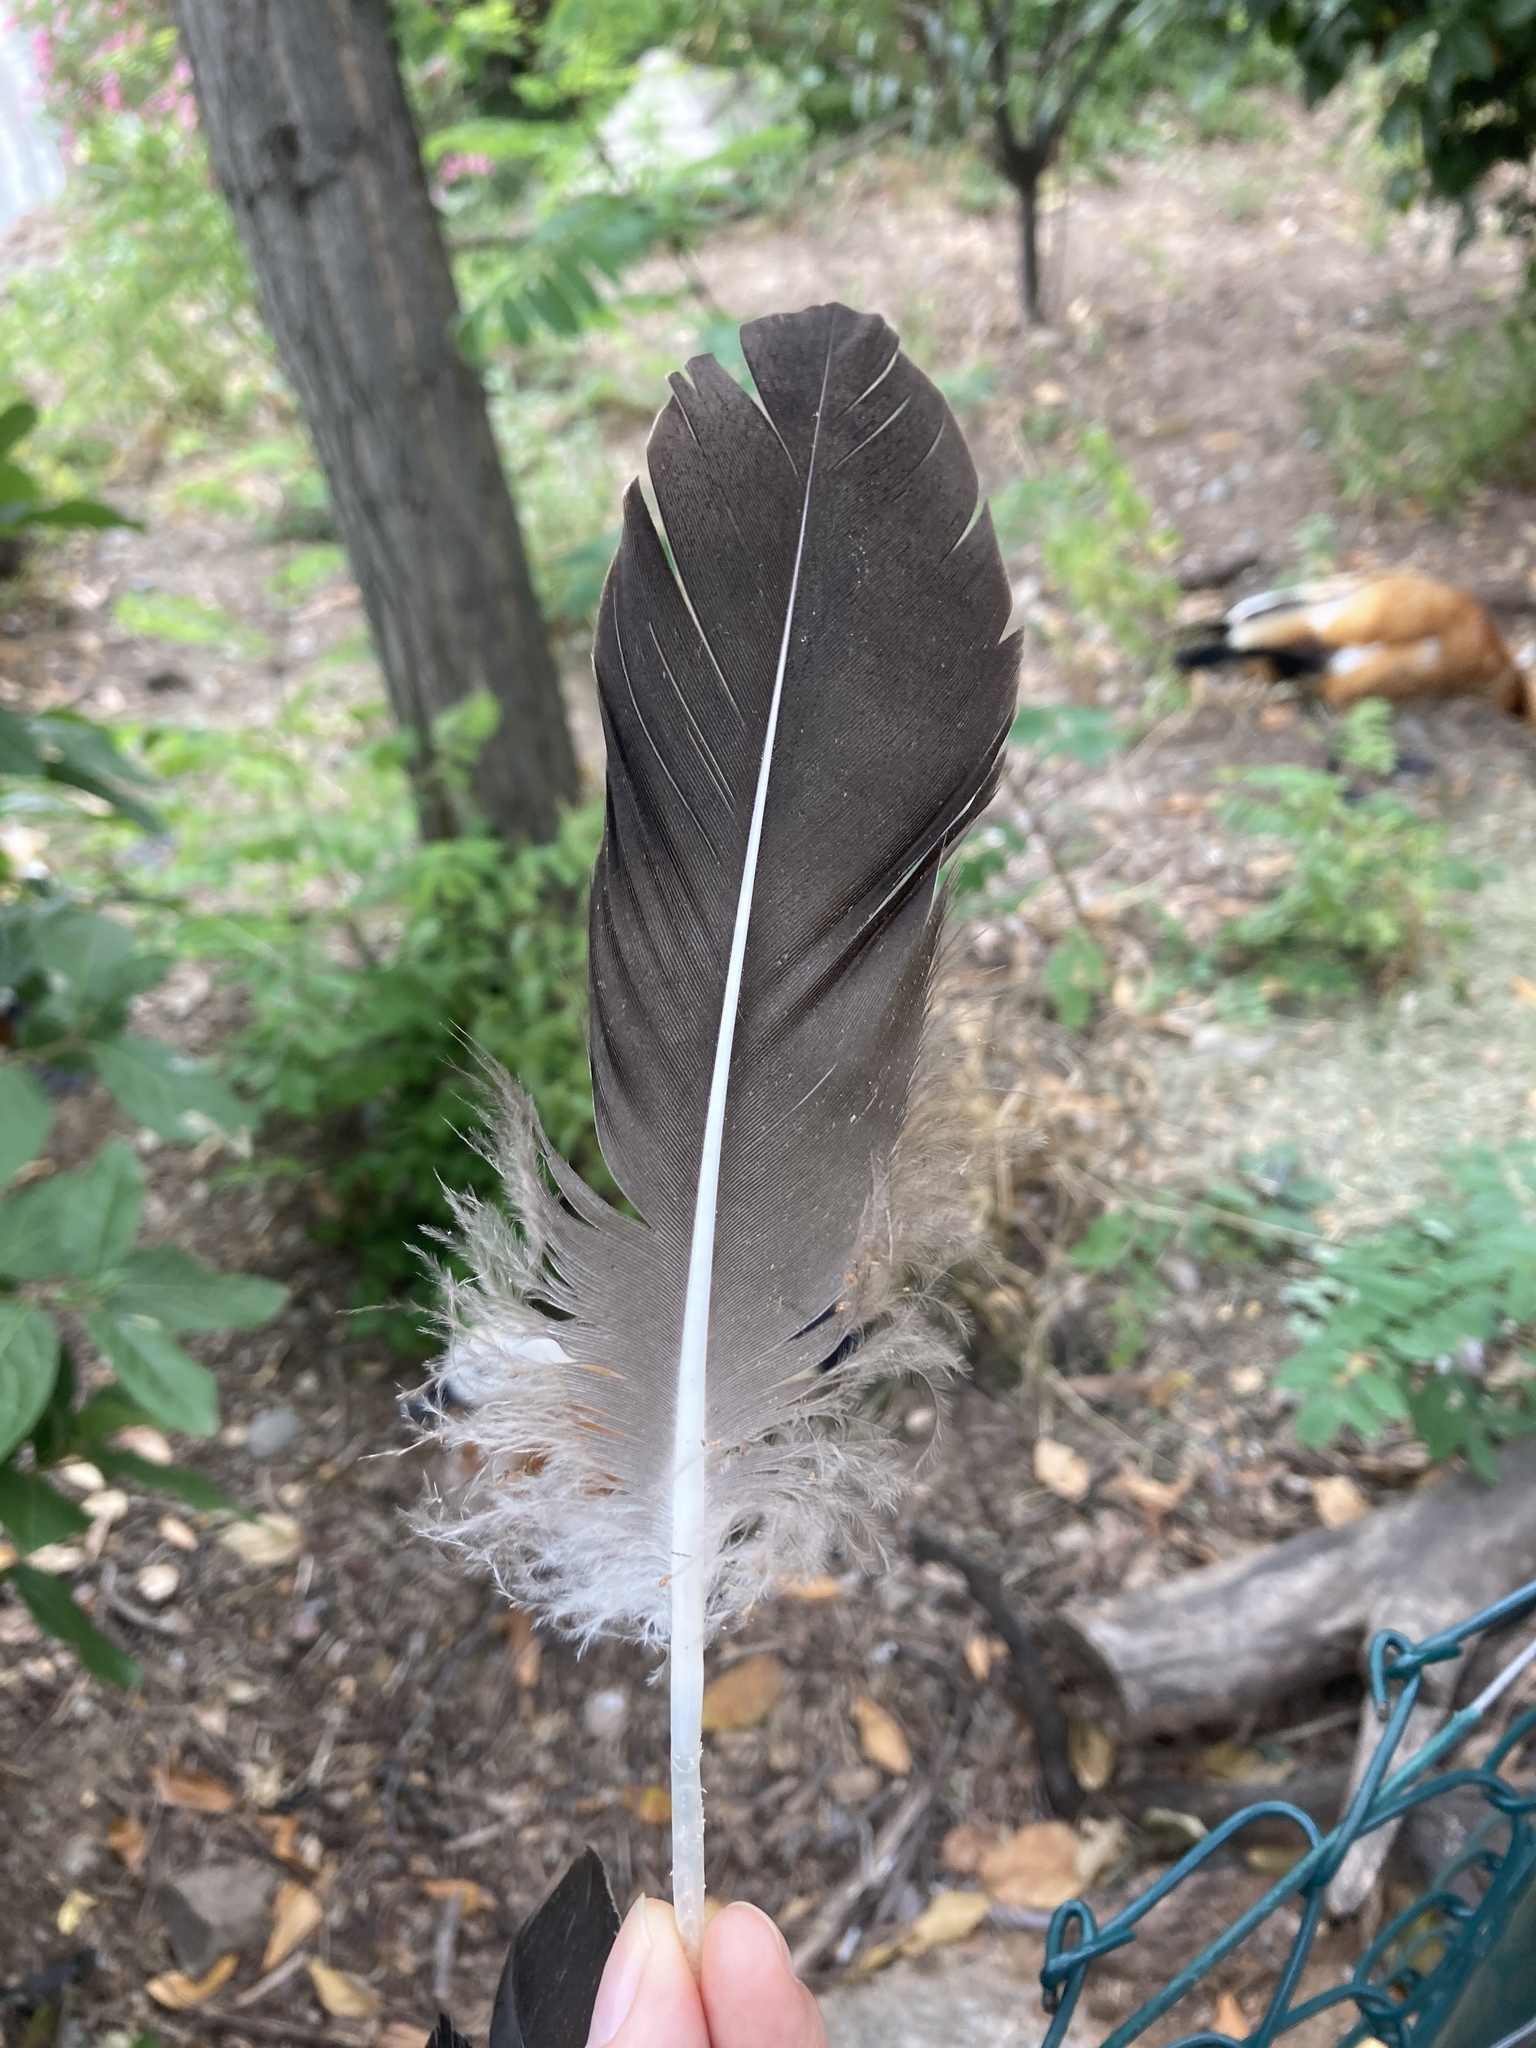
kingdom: Animalia
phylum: Chordata
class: Aves
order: Anseriformes
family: Anatidae
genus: Anser
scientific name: Anser anser
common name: Greylag goose
